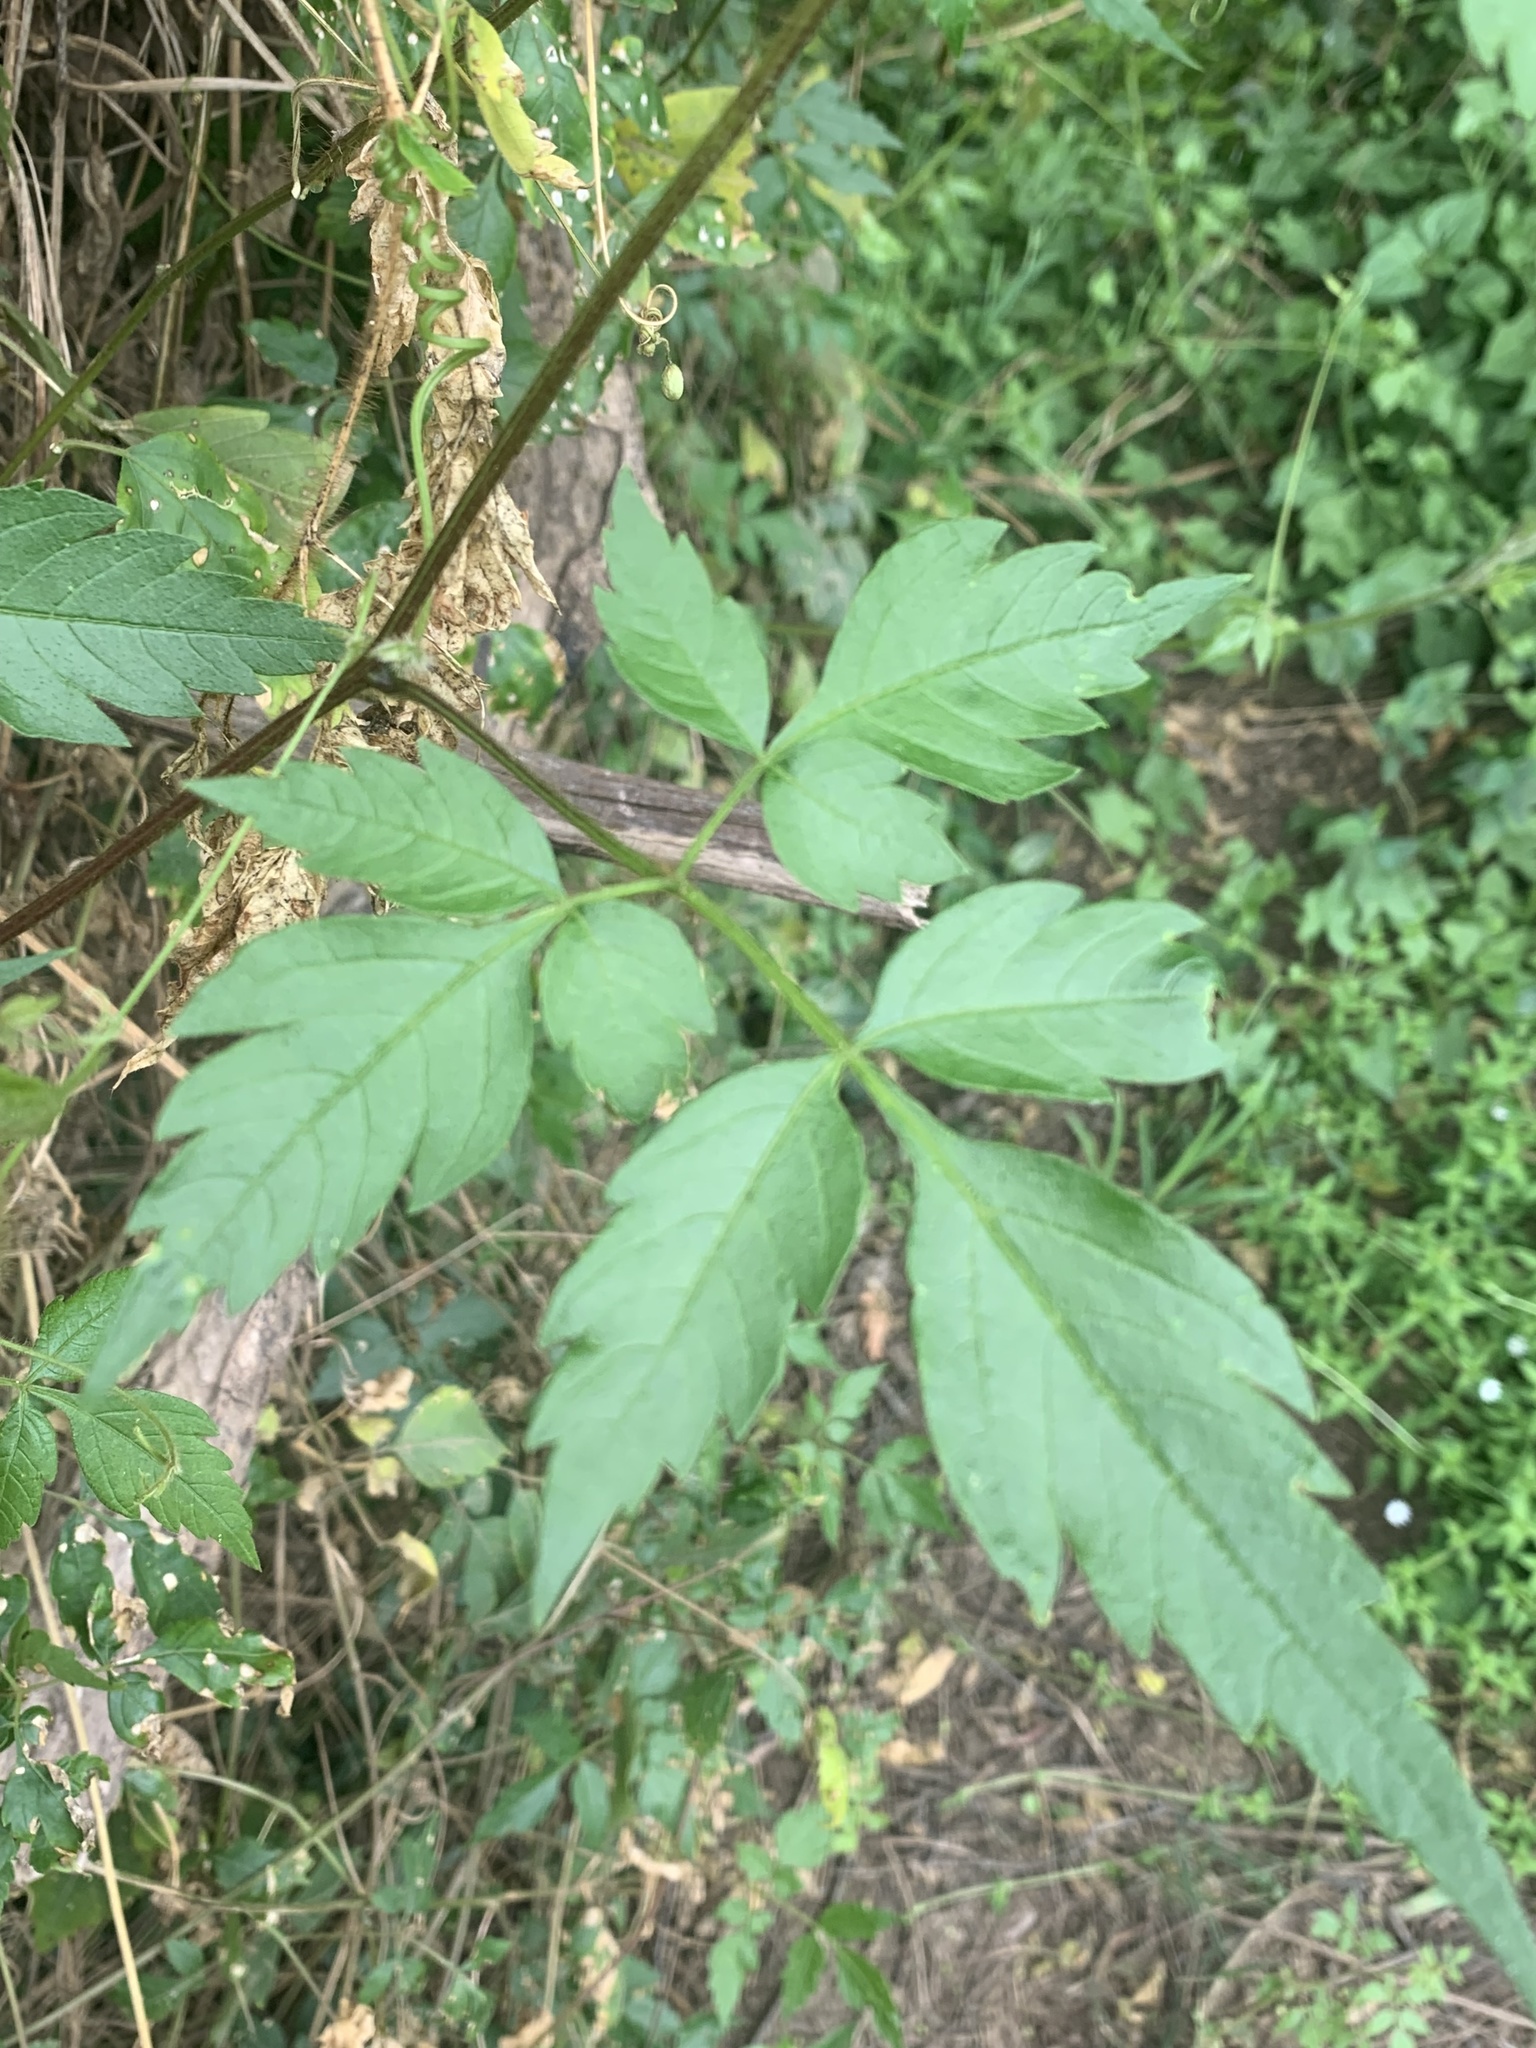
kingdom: Plantae
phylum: Tracheophyta
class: Magnoliopsida
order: Sapindales
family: Sapindaceae
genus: Cardiospermum
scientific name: Cardiospermum grandiflorum
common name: Balloon vine
